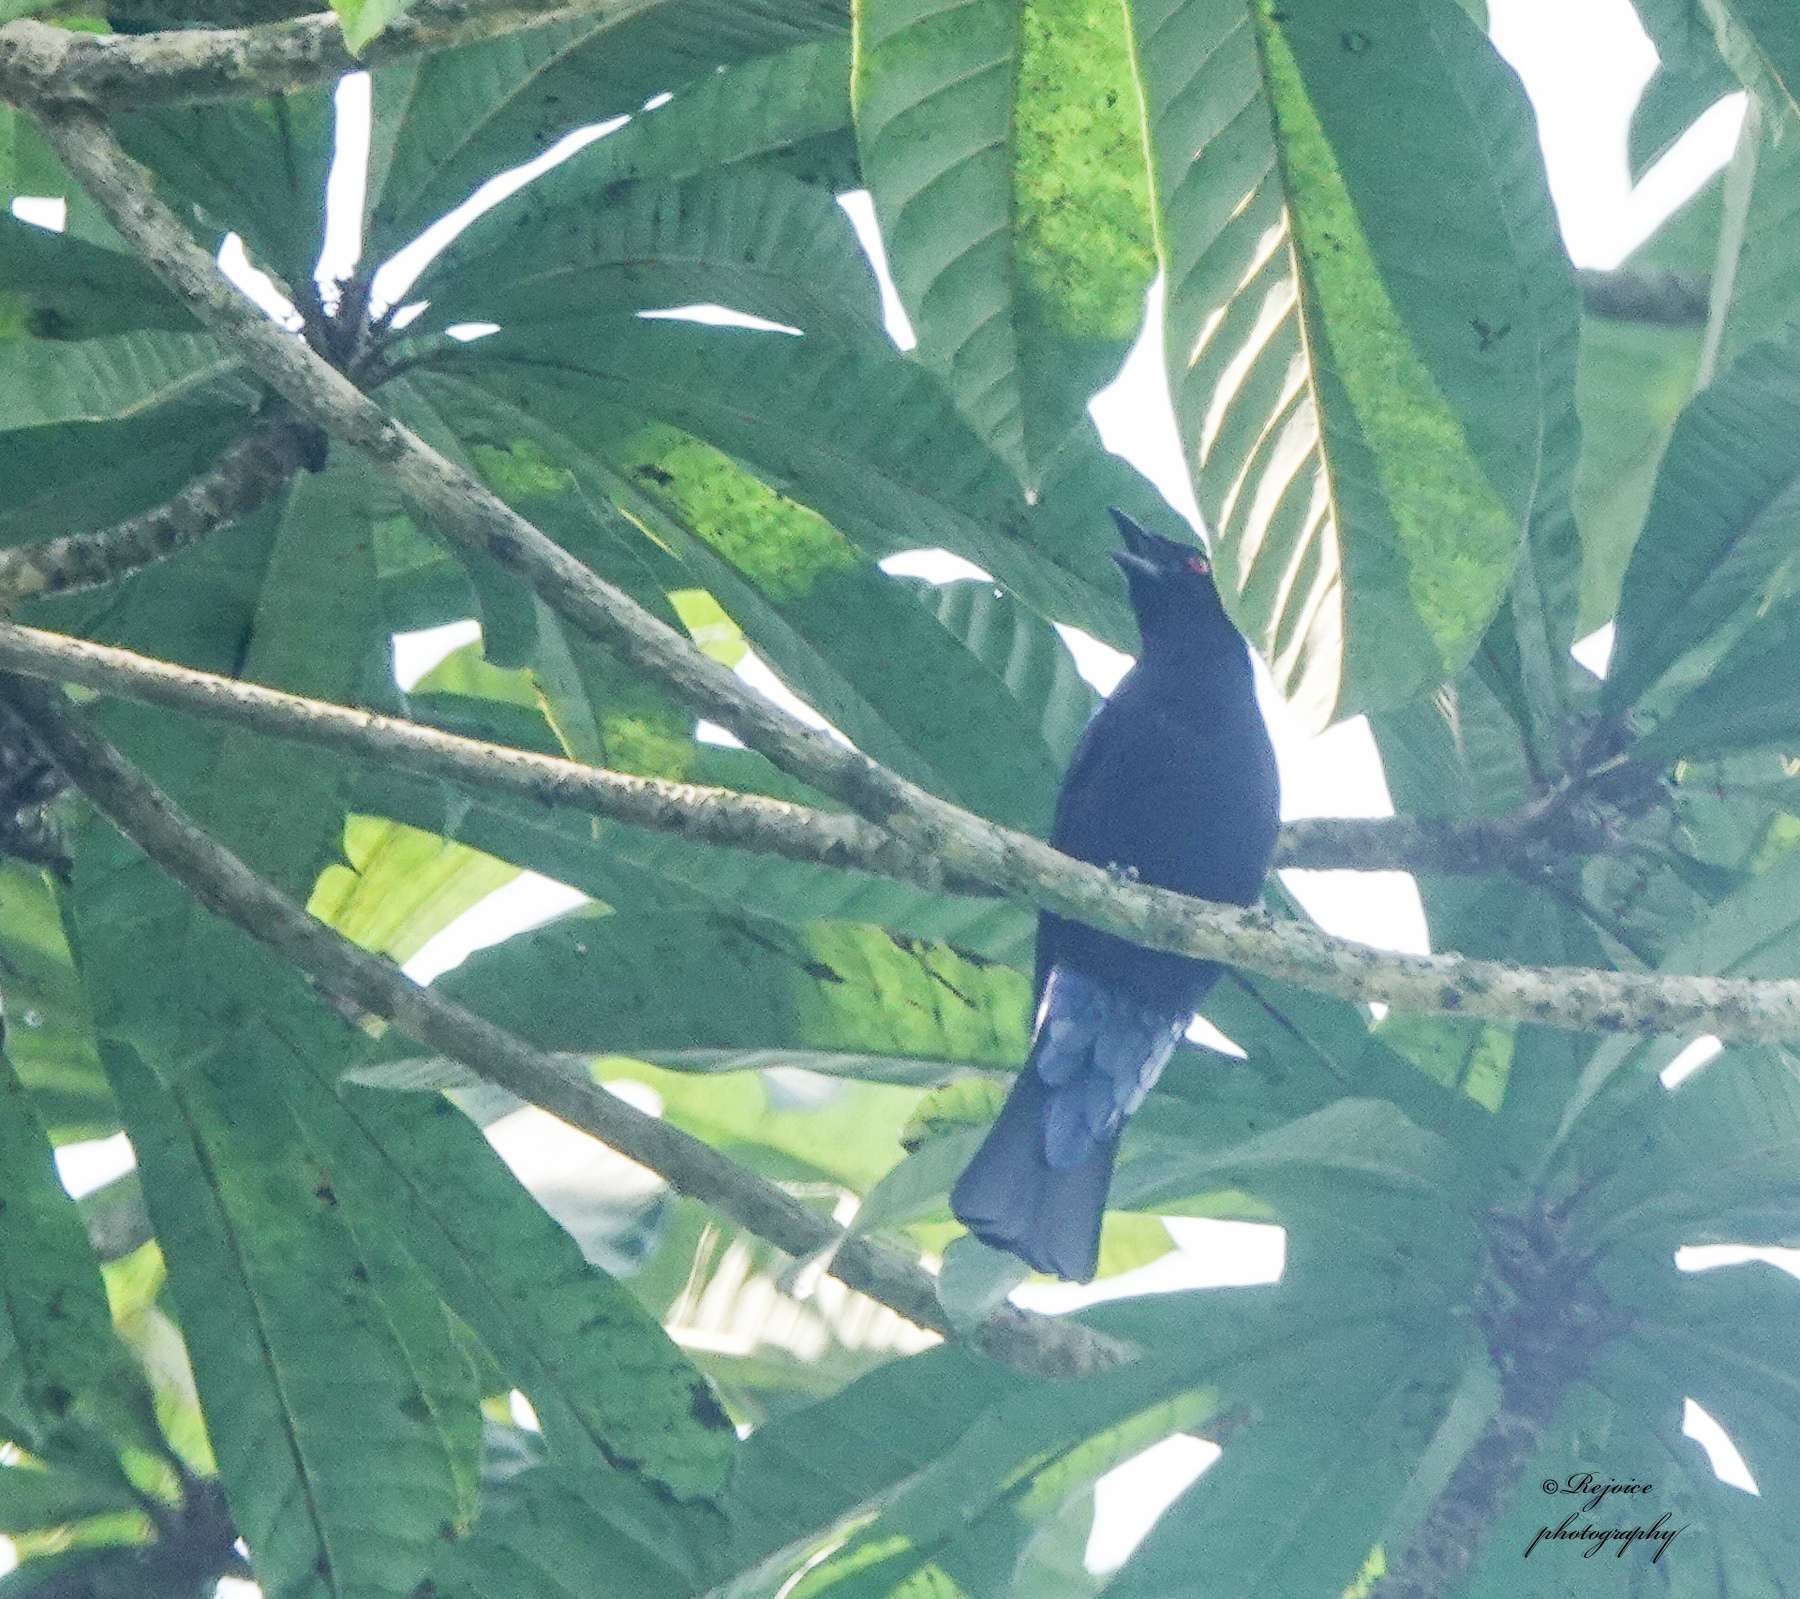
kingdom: Animalia
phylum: Chordata
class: Aves
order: Passeriformes
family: Irenidae
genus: Irena
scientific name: Irena puella
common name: Asian fairy-bluebird
